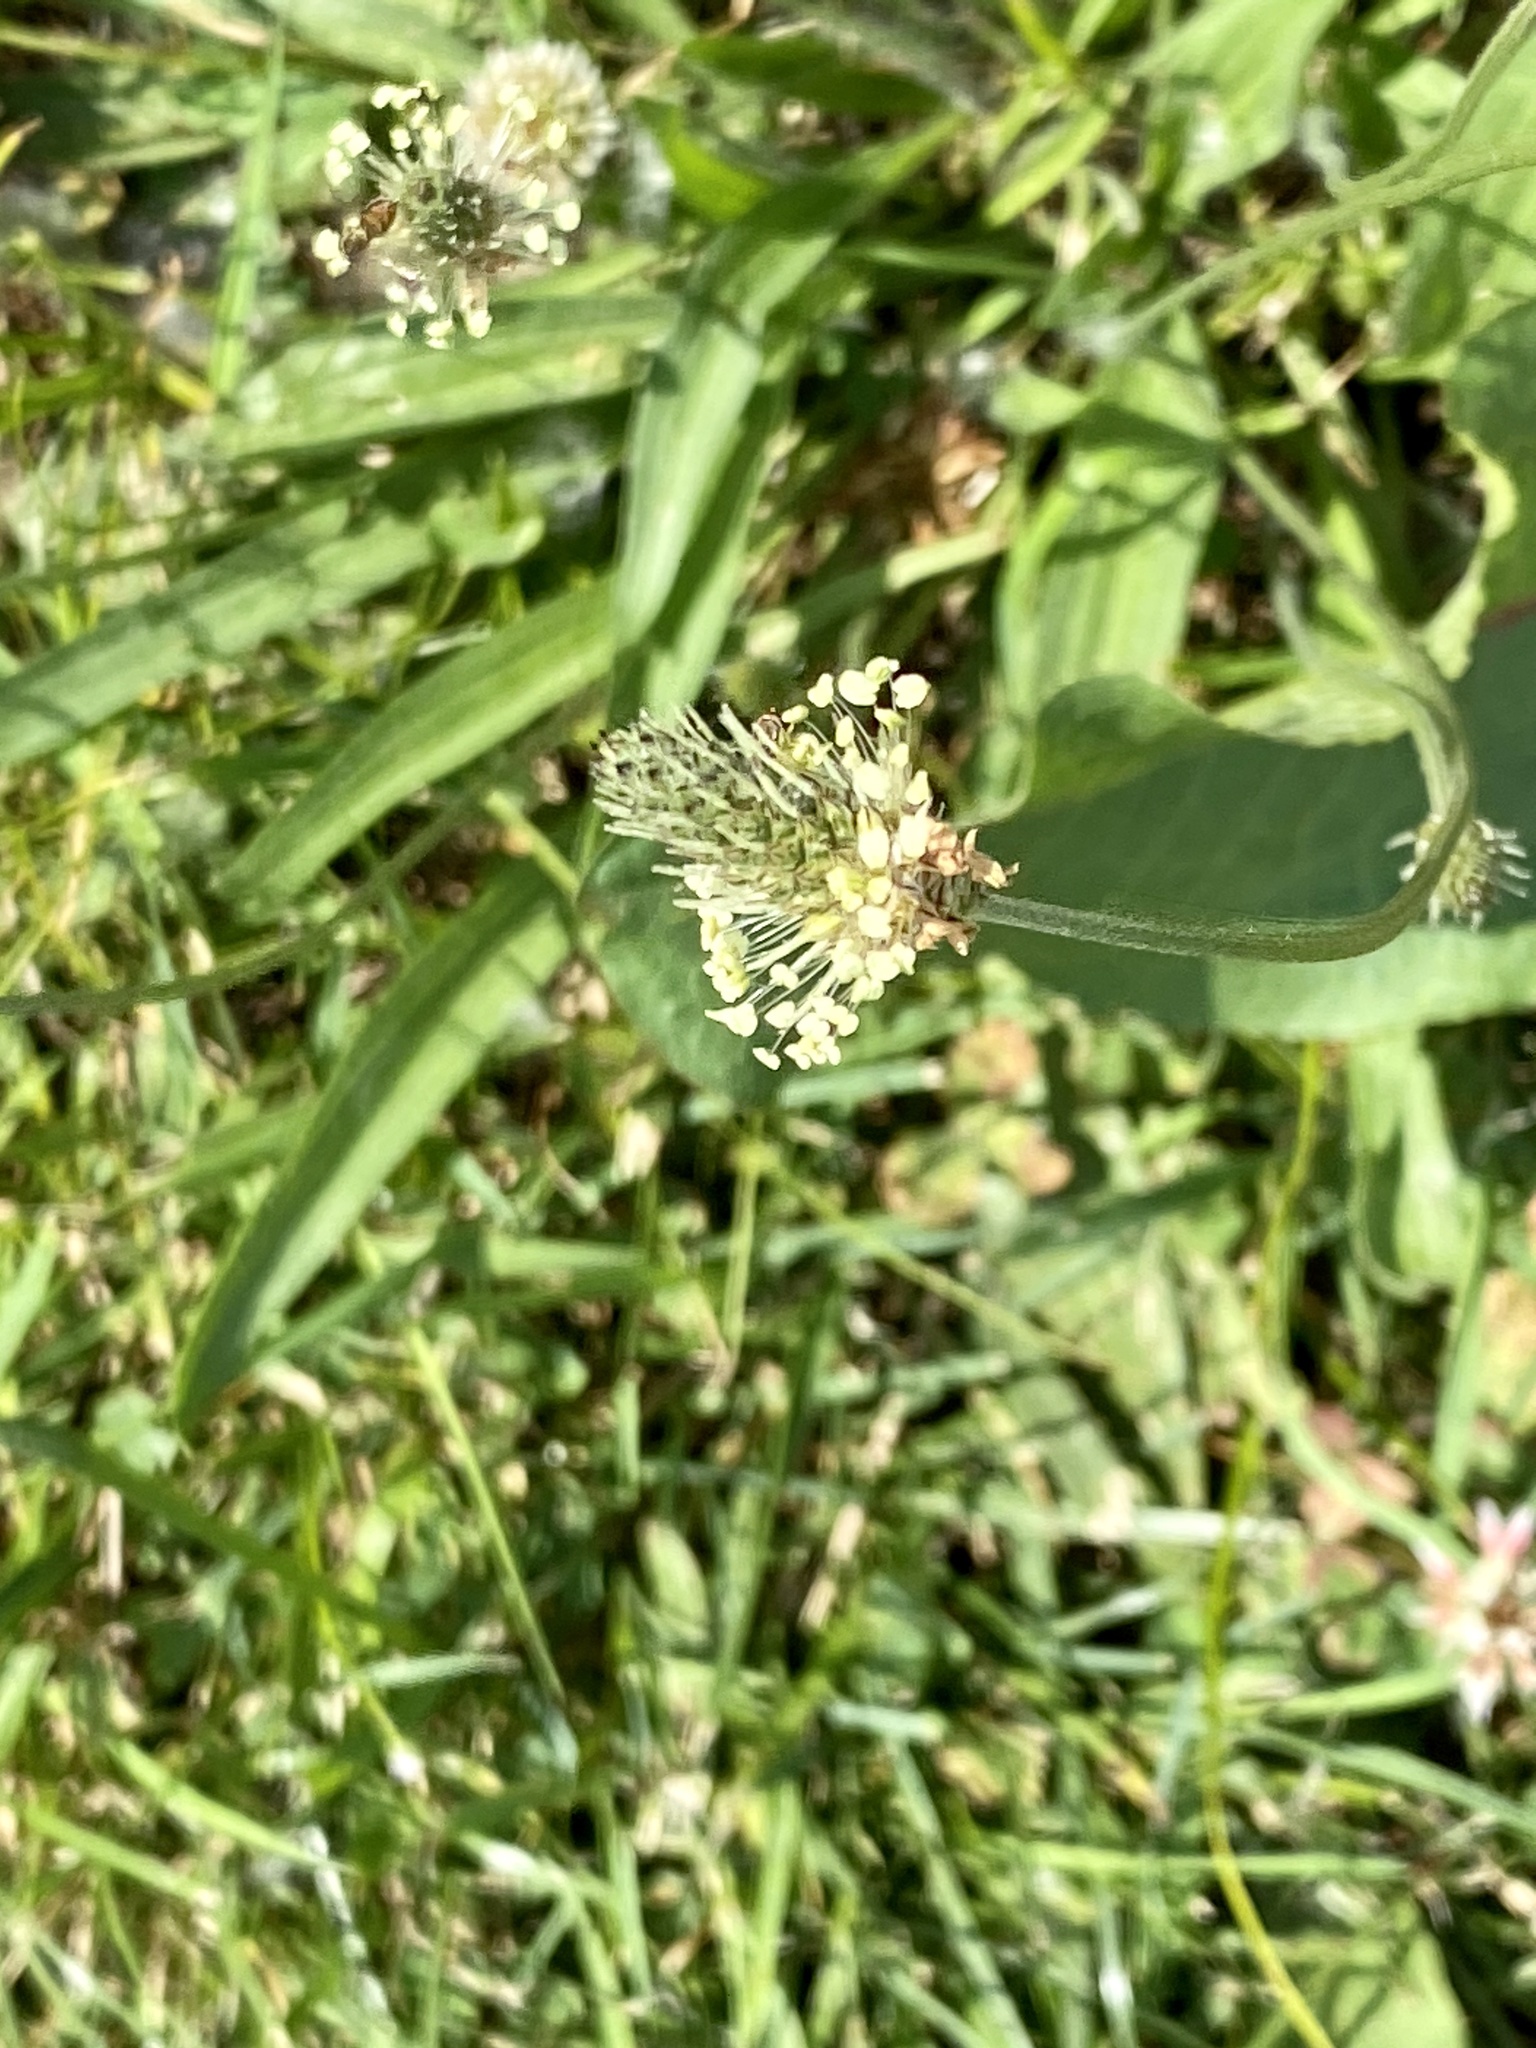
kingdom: Plantae
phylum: Tracheophyta
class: Magnoliopsida
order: Lamiales
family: Plantaginaceae
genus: Plantago
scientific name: Plantago lanceolata
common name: Ribwort plantain
